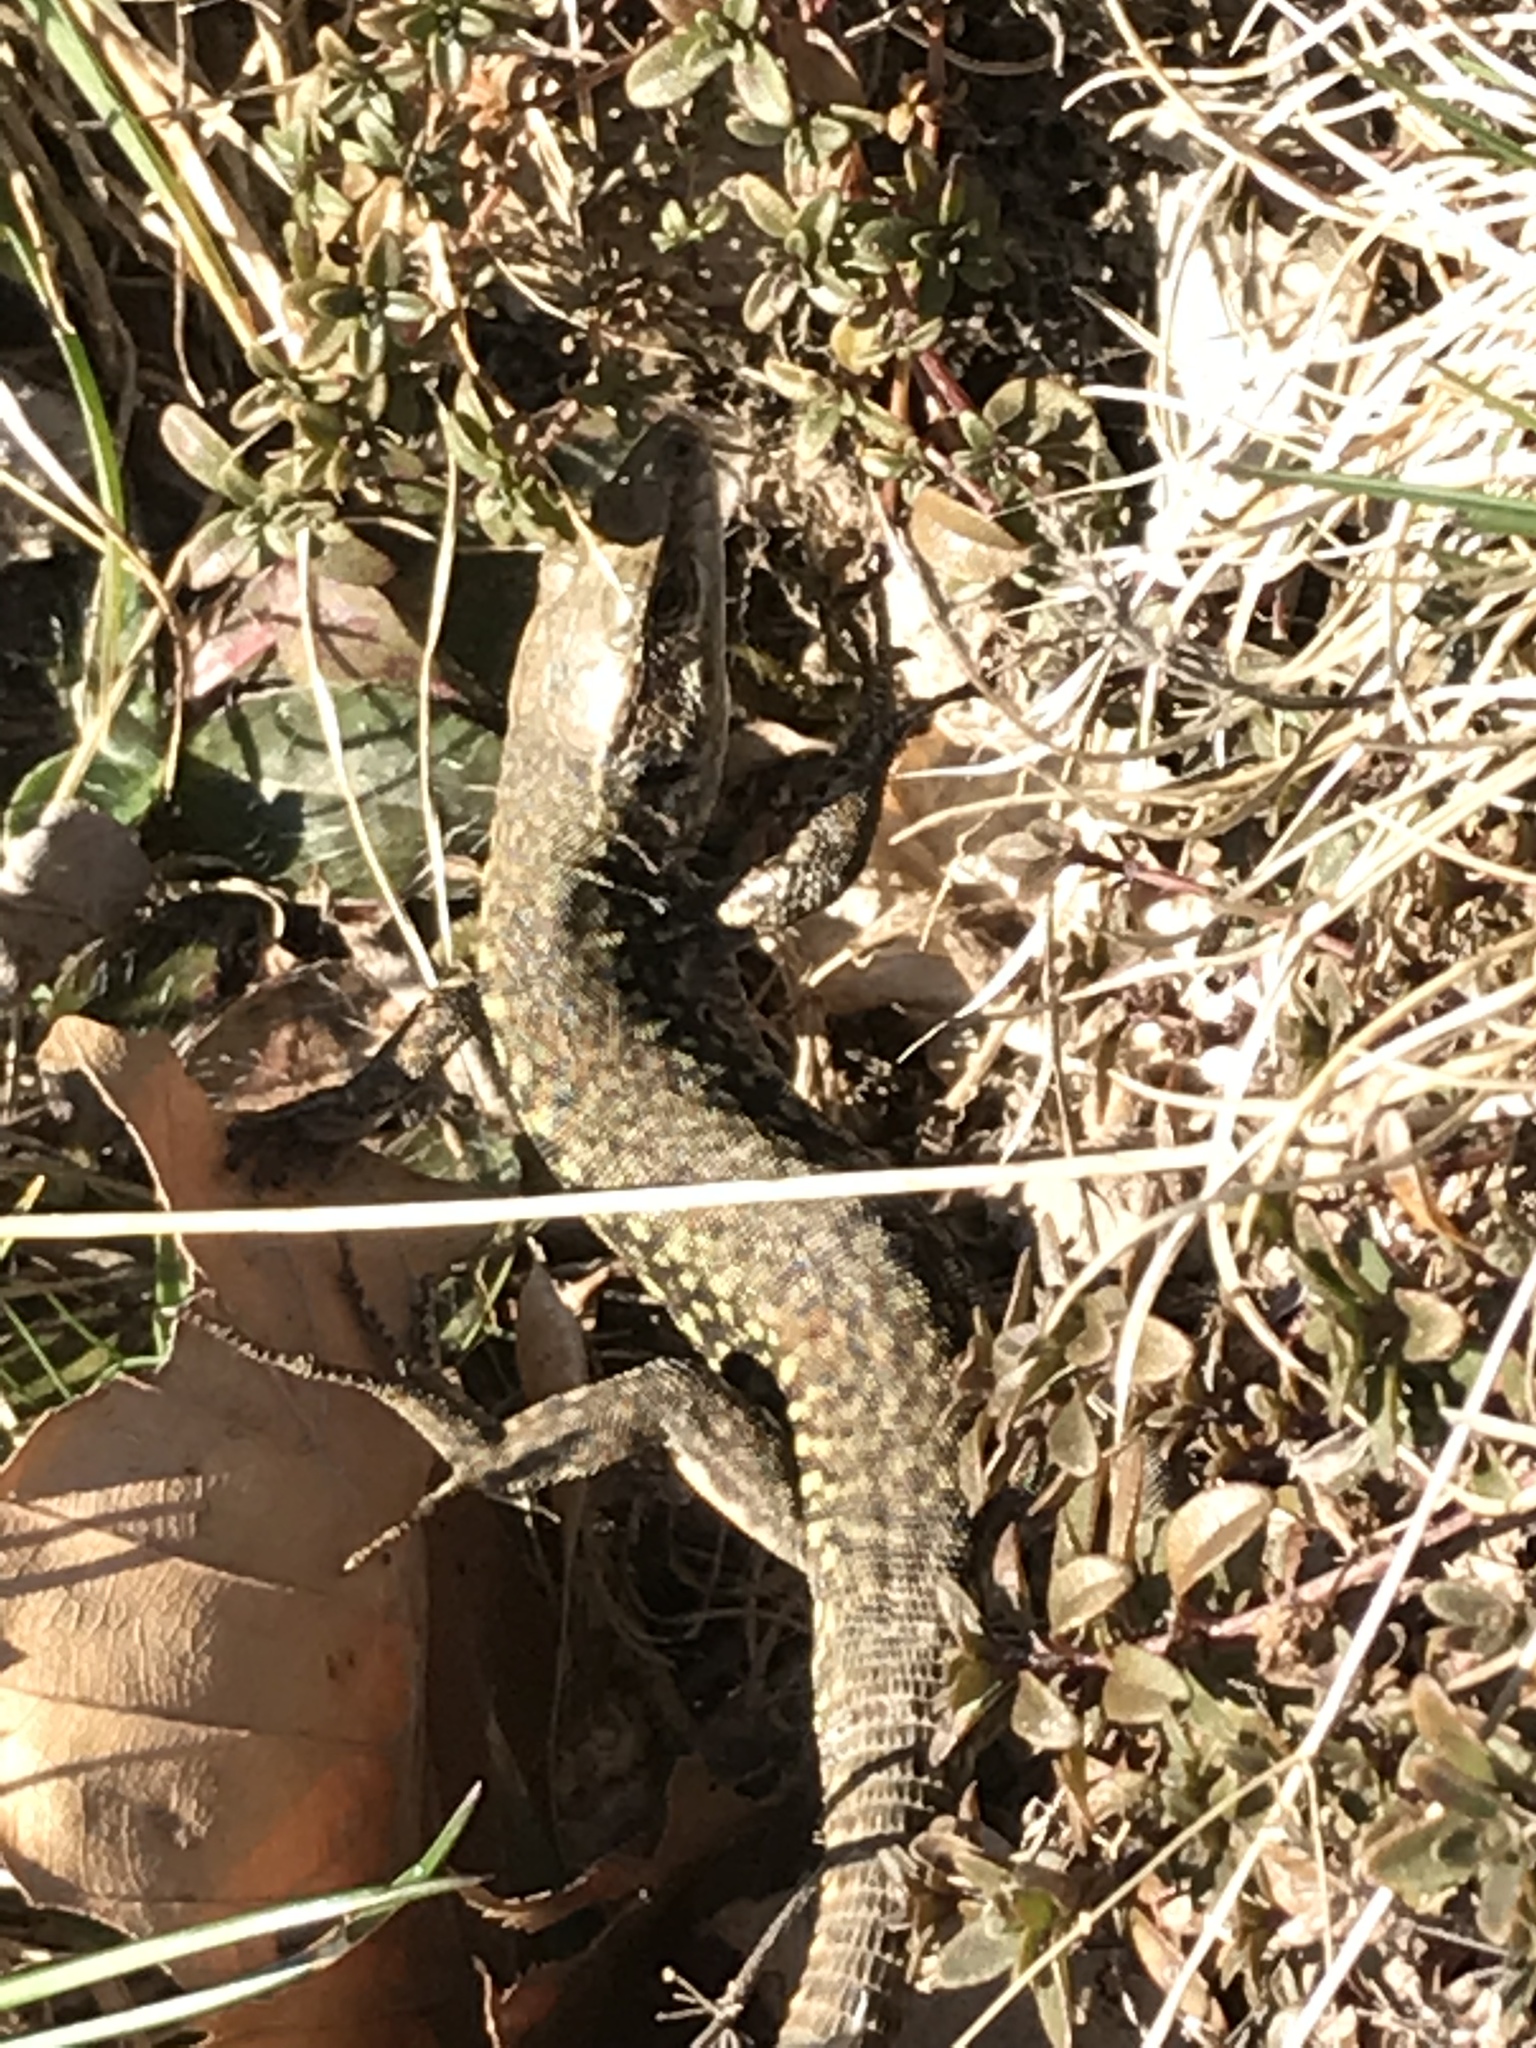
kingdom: Animalia
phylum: Chordata
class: Squamata
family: Lacertidae
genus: Podarcis
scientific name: Podarcis muralis
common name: Common wall lizard
